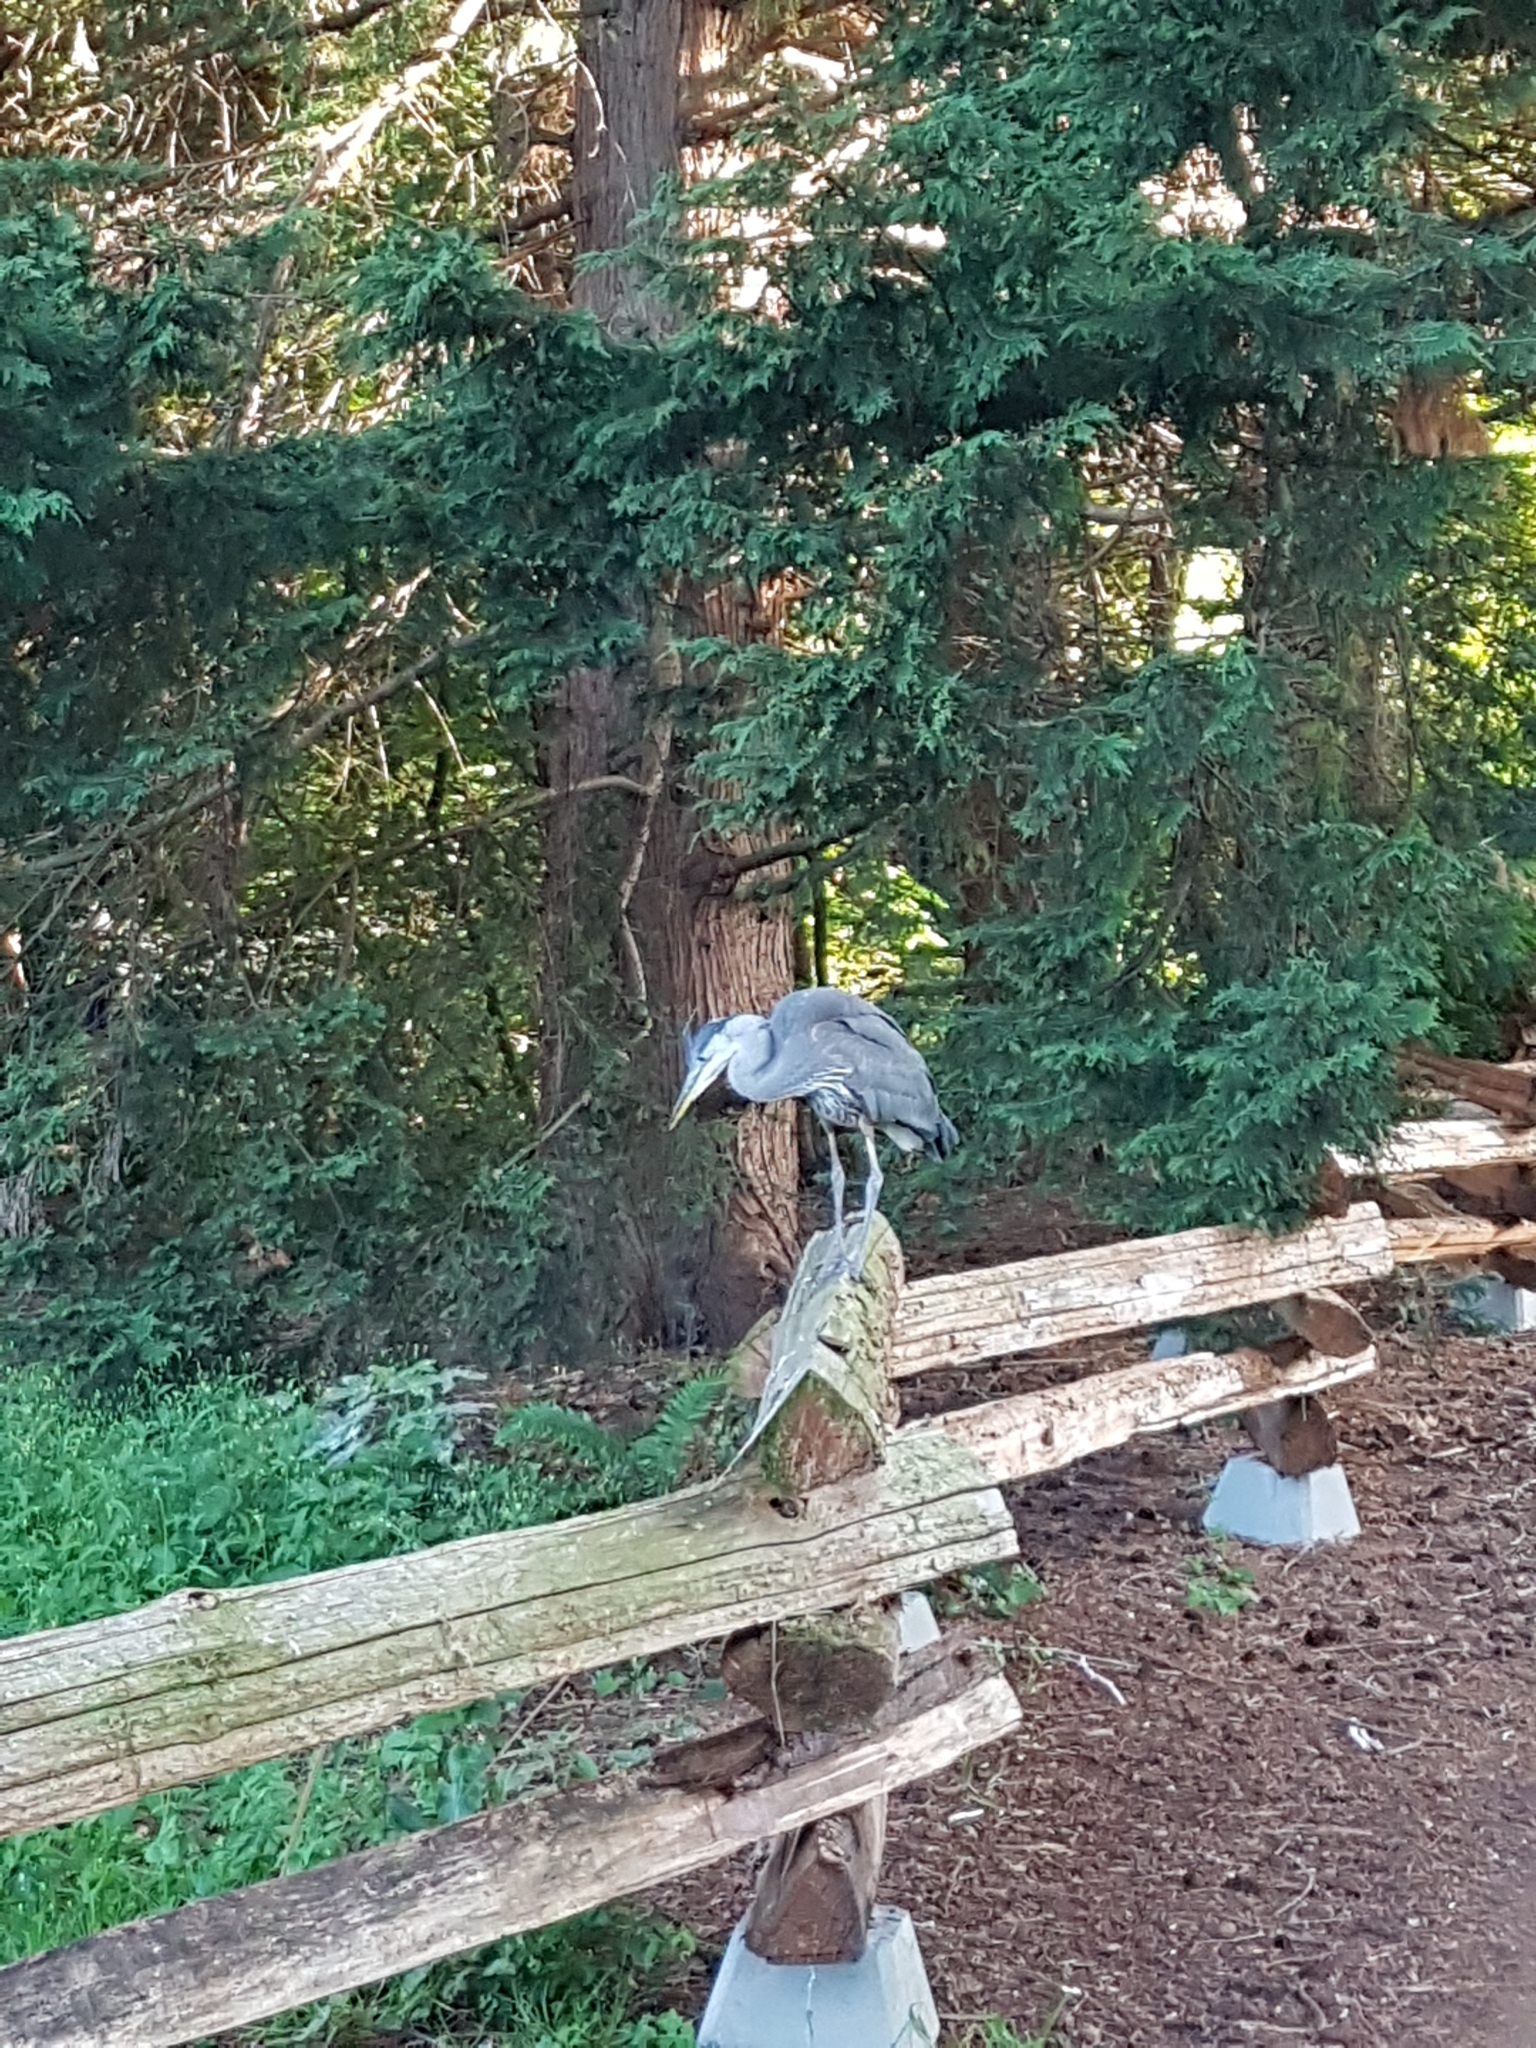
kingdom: Animalia
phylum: Chordata
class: Aves
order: Pelecaniformes
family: Ardeidae
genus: Ardea
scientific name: Ardea herodias
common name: Great blue heron
